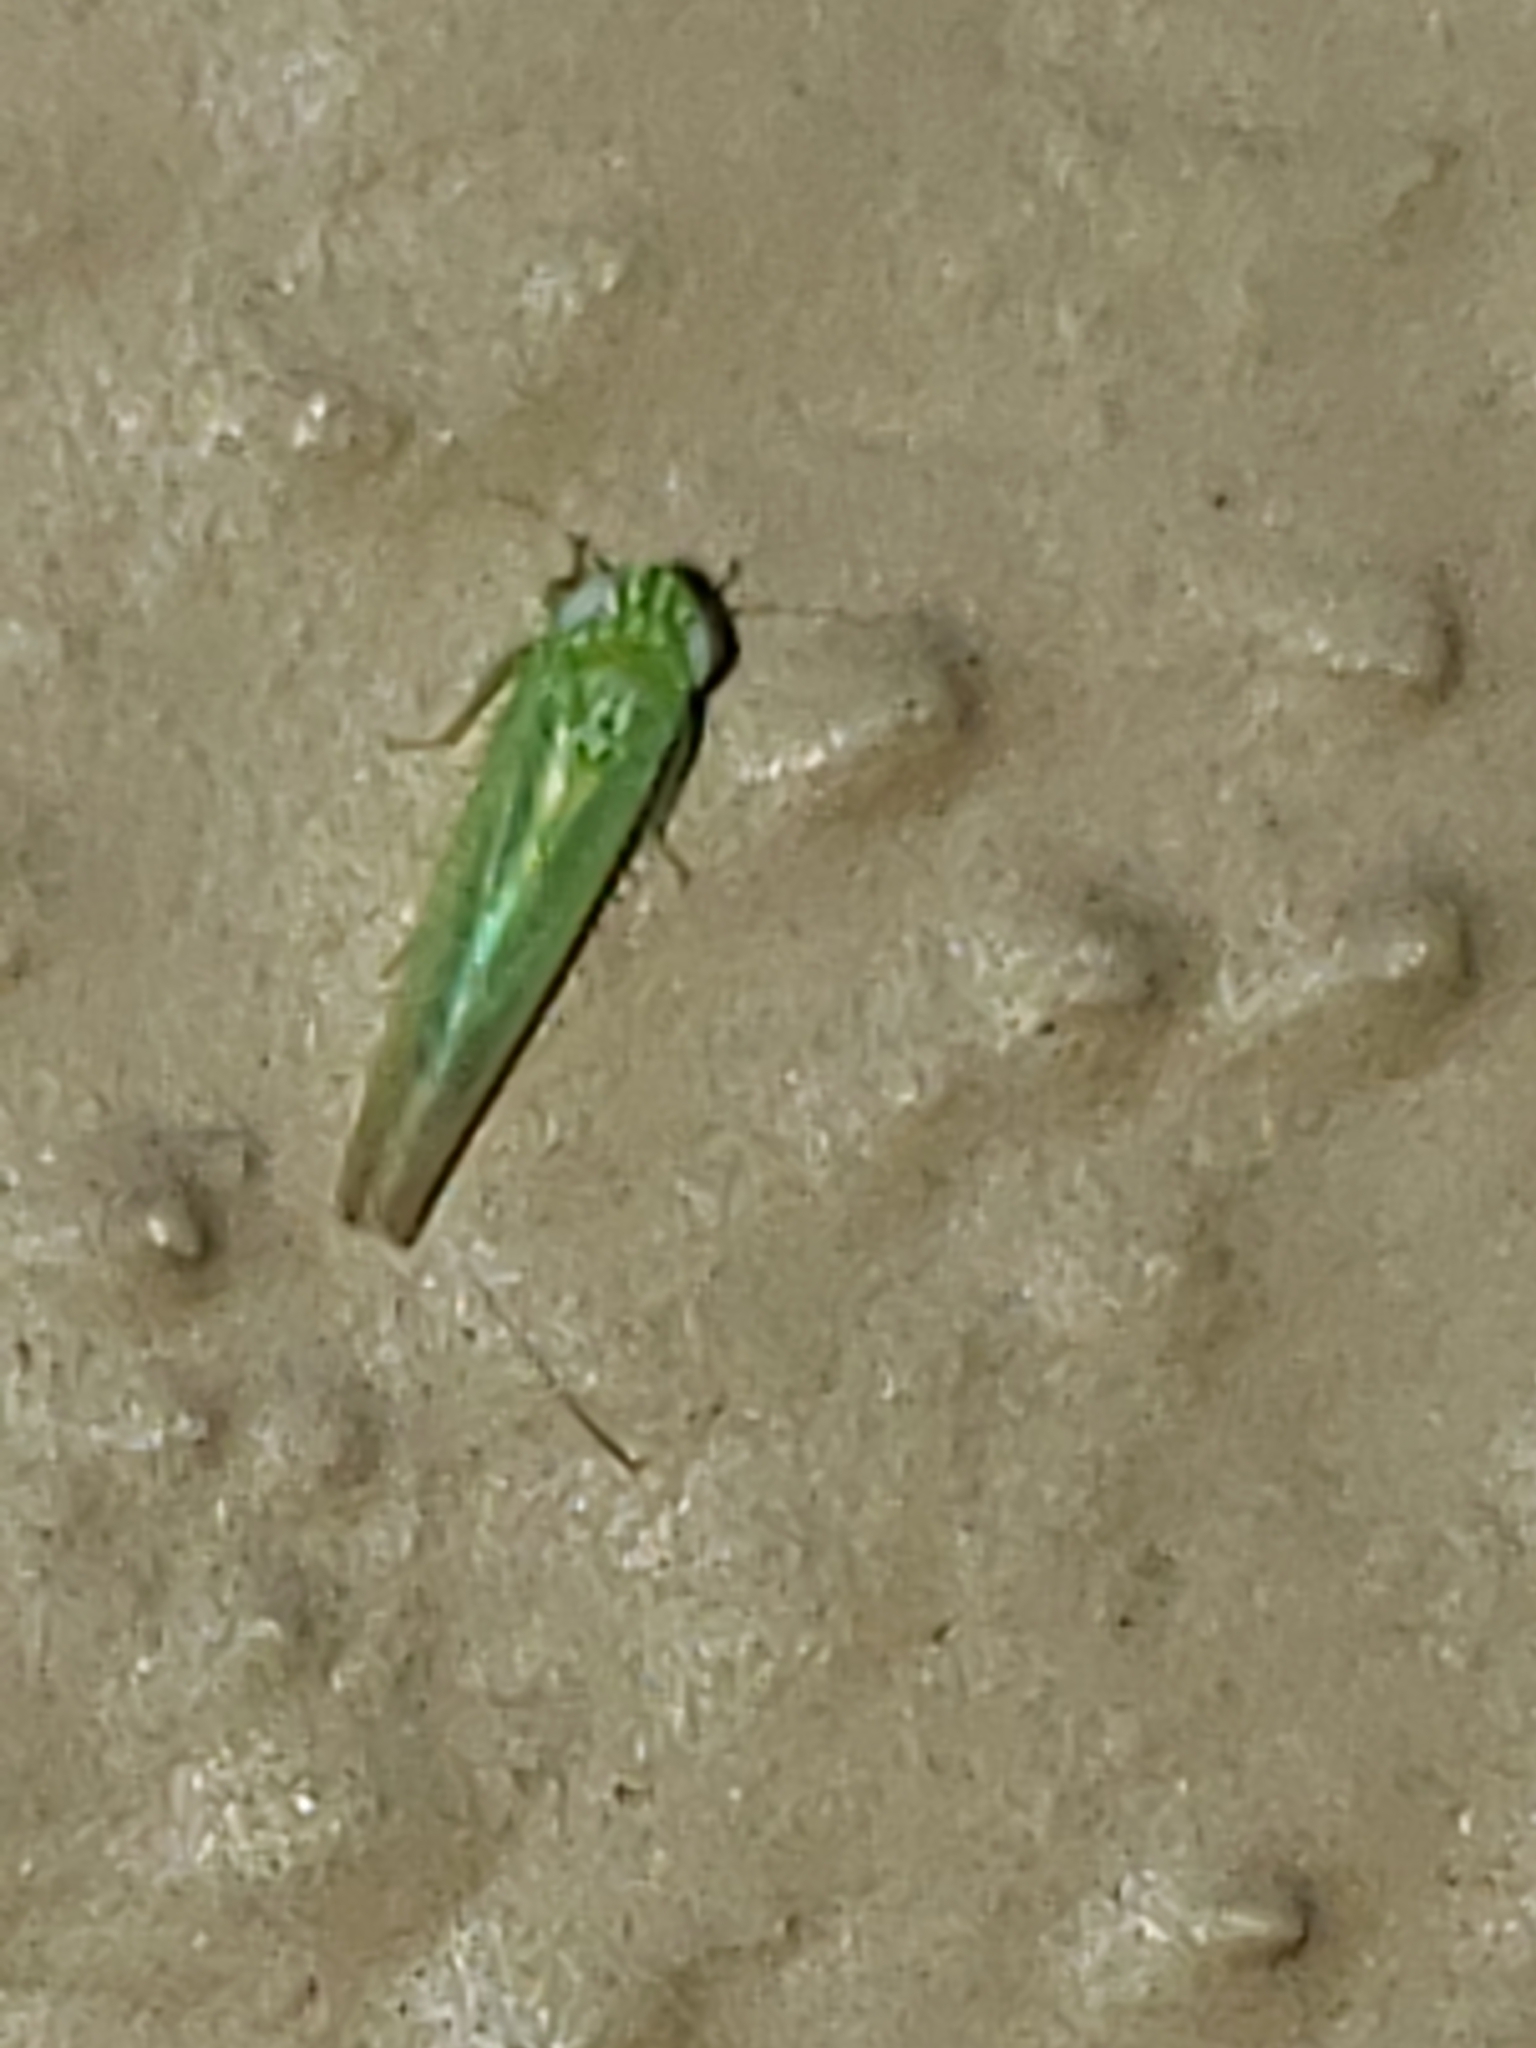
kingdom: Animalia
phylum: Arthropoda
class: Insecta
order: Hemiptera
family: Cicadellidae
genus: Empoasca
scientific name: Empoasca fabae
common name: Potato leafhopper
